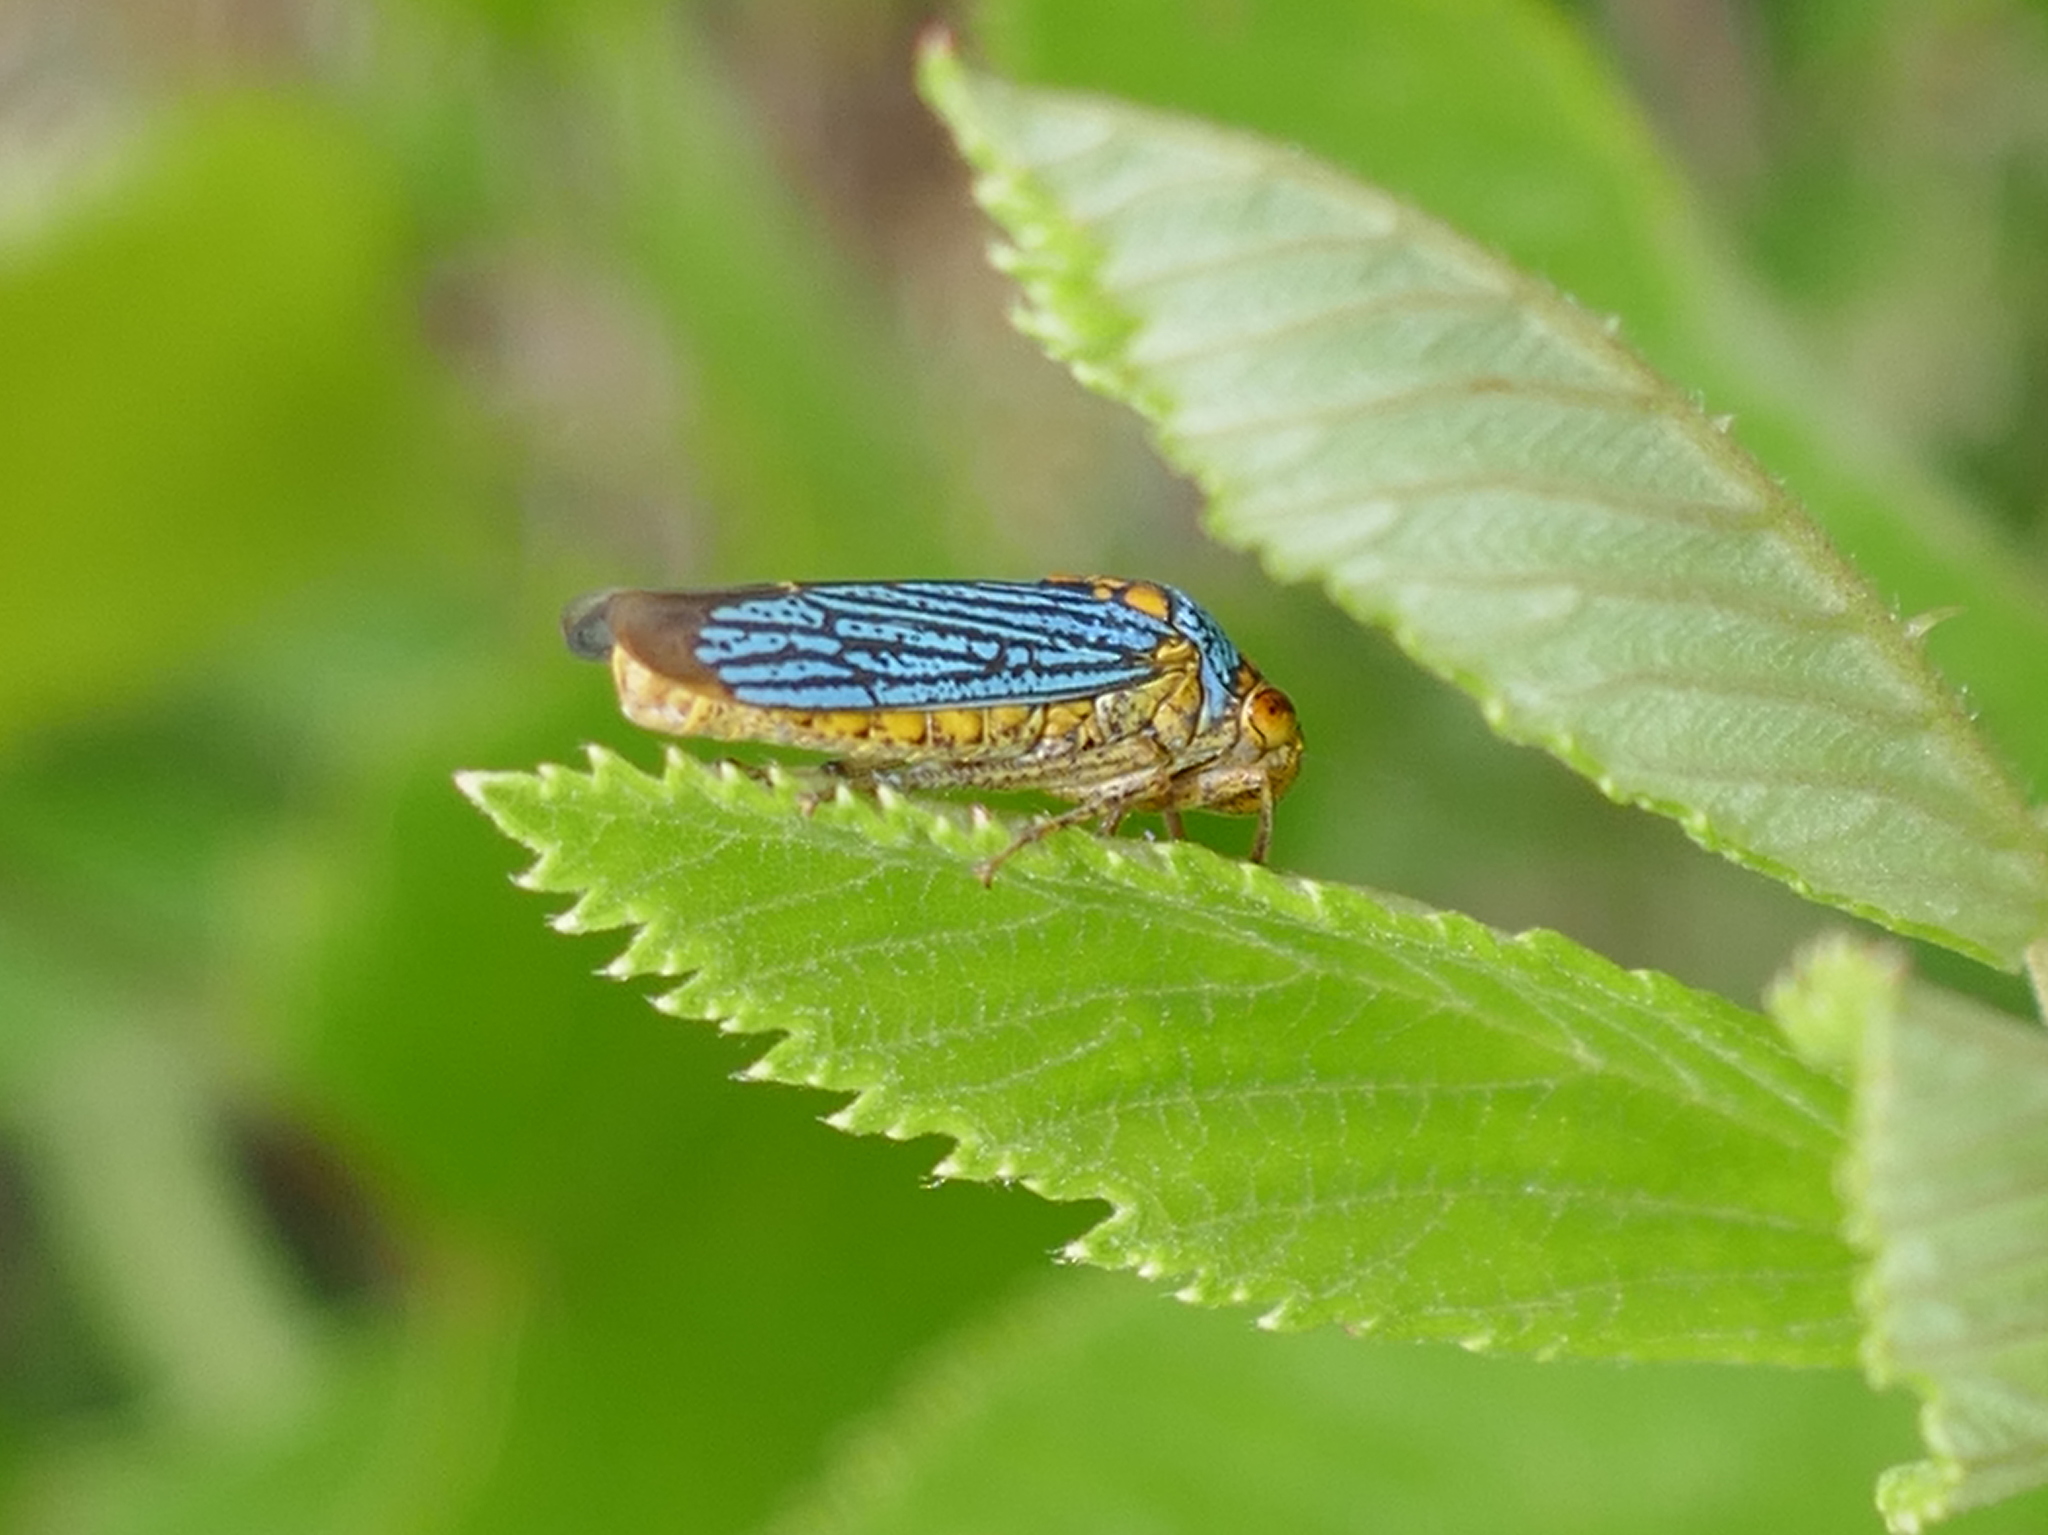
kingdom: Animalia
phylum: Arthropoda
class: Insecta
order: Hemiptera
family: Cicadellidae
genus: Oncometopia
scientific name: Oncometopia nigricans
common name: Black-winged sharpshooter
